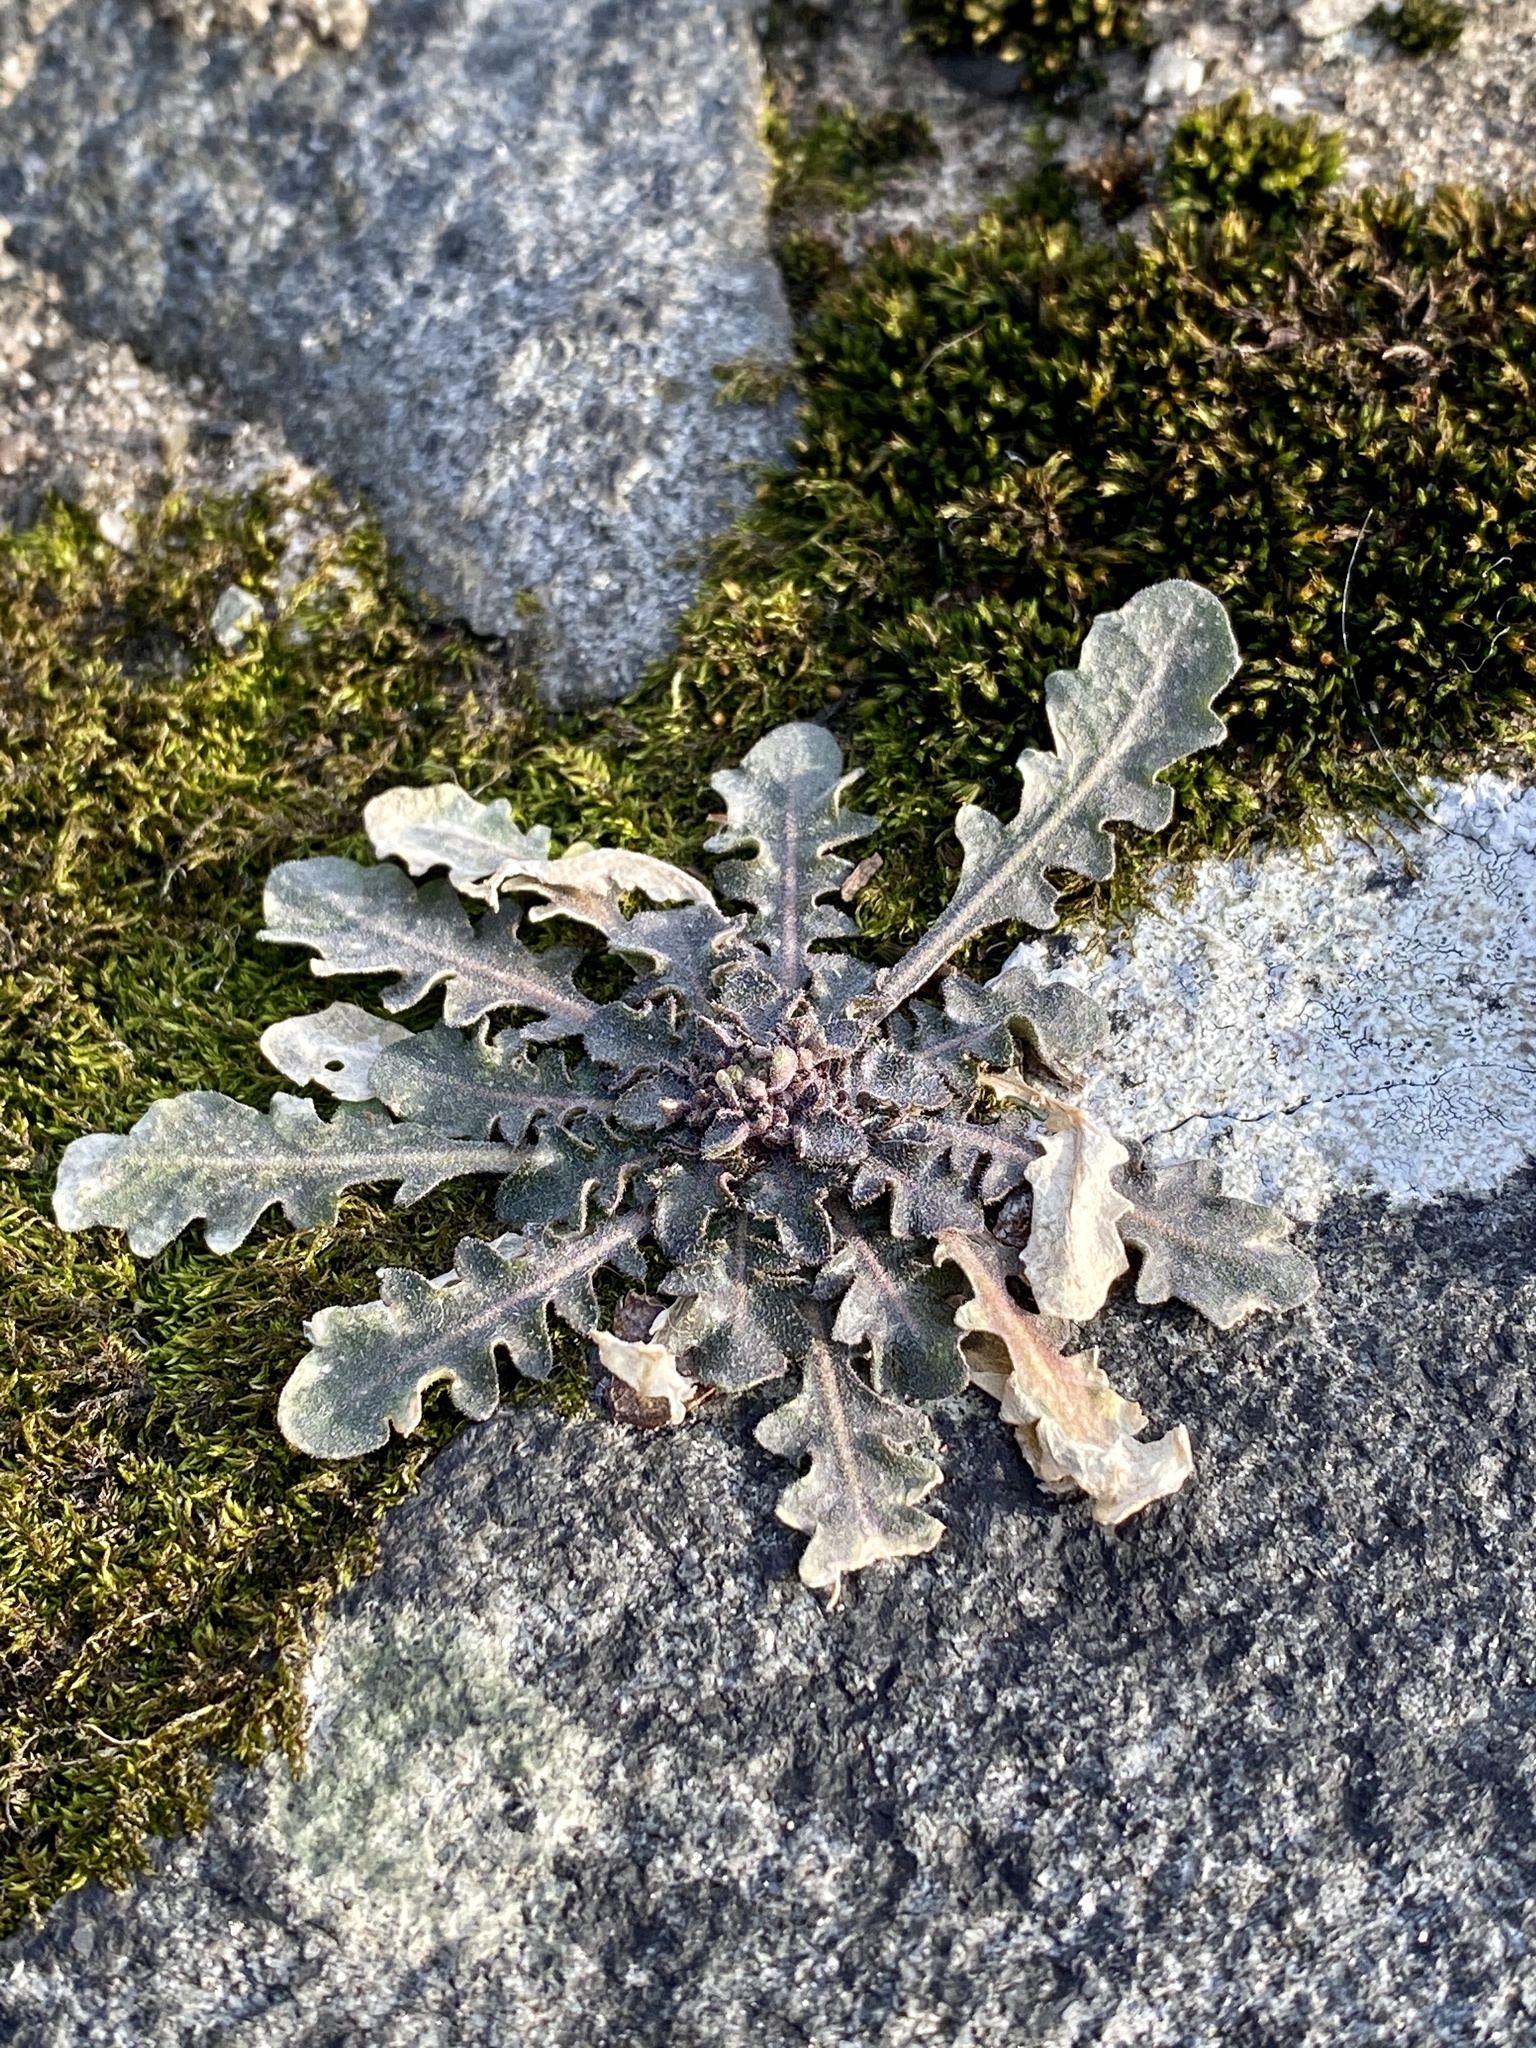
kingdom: Plantae
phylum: Tracheophyta
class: Magnoliopsida
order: Brassicales
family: Brassicaceae
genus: Arabidopsis
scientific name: Arabidopsis lyrata
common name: Lyrate rockcress
